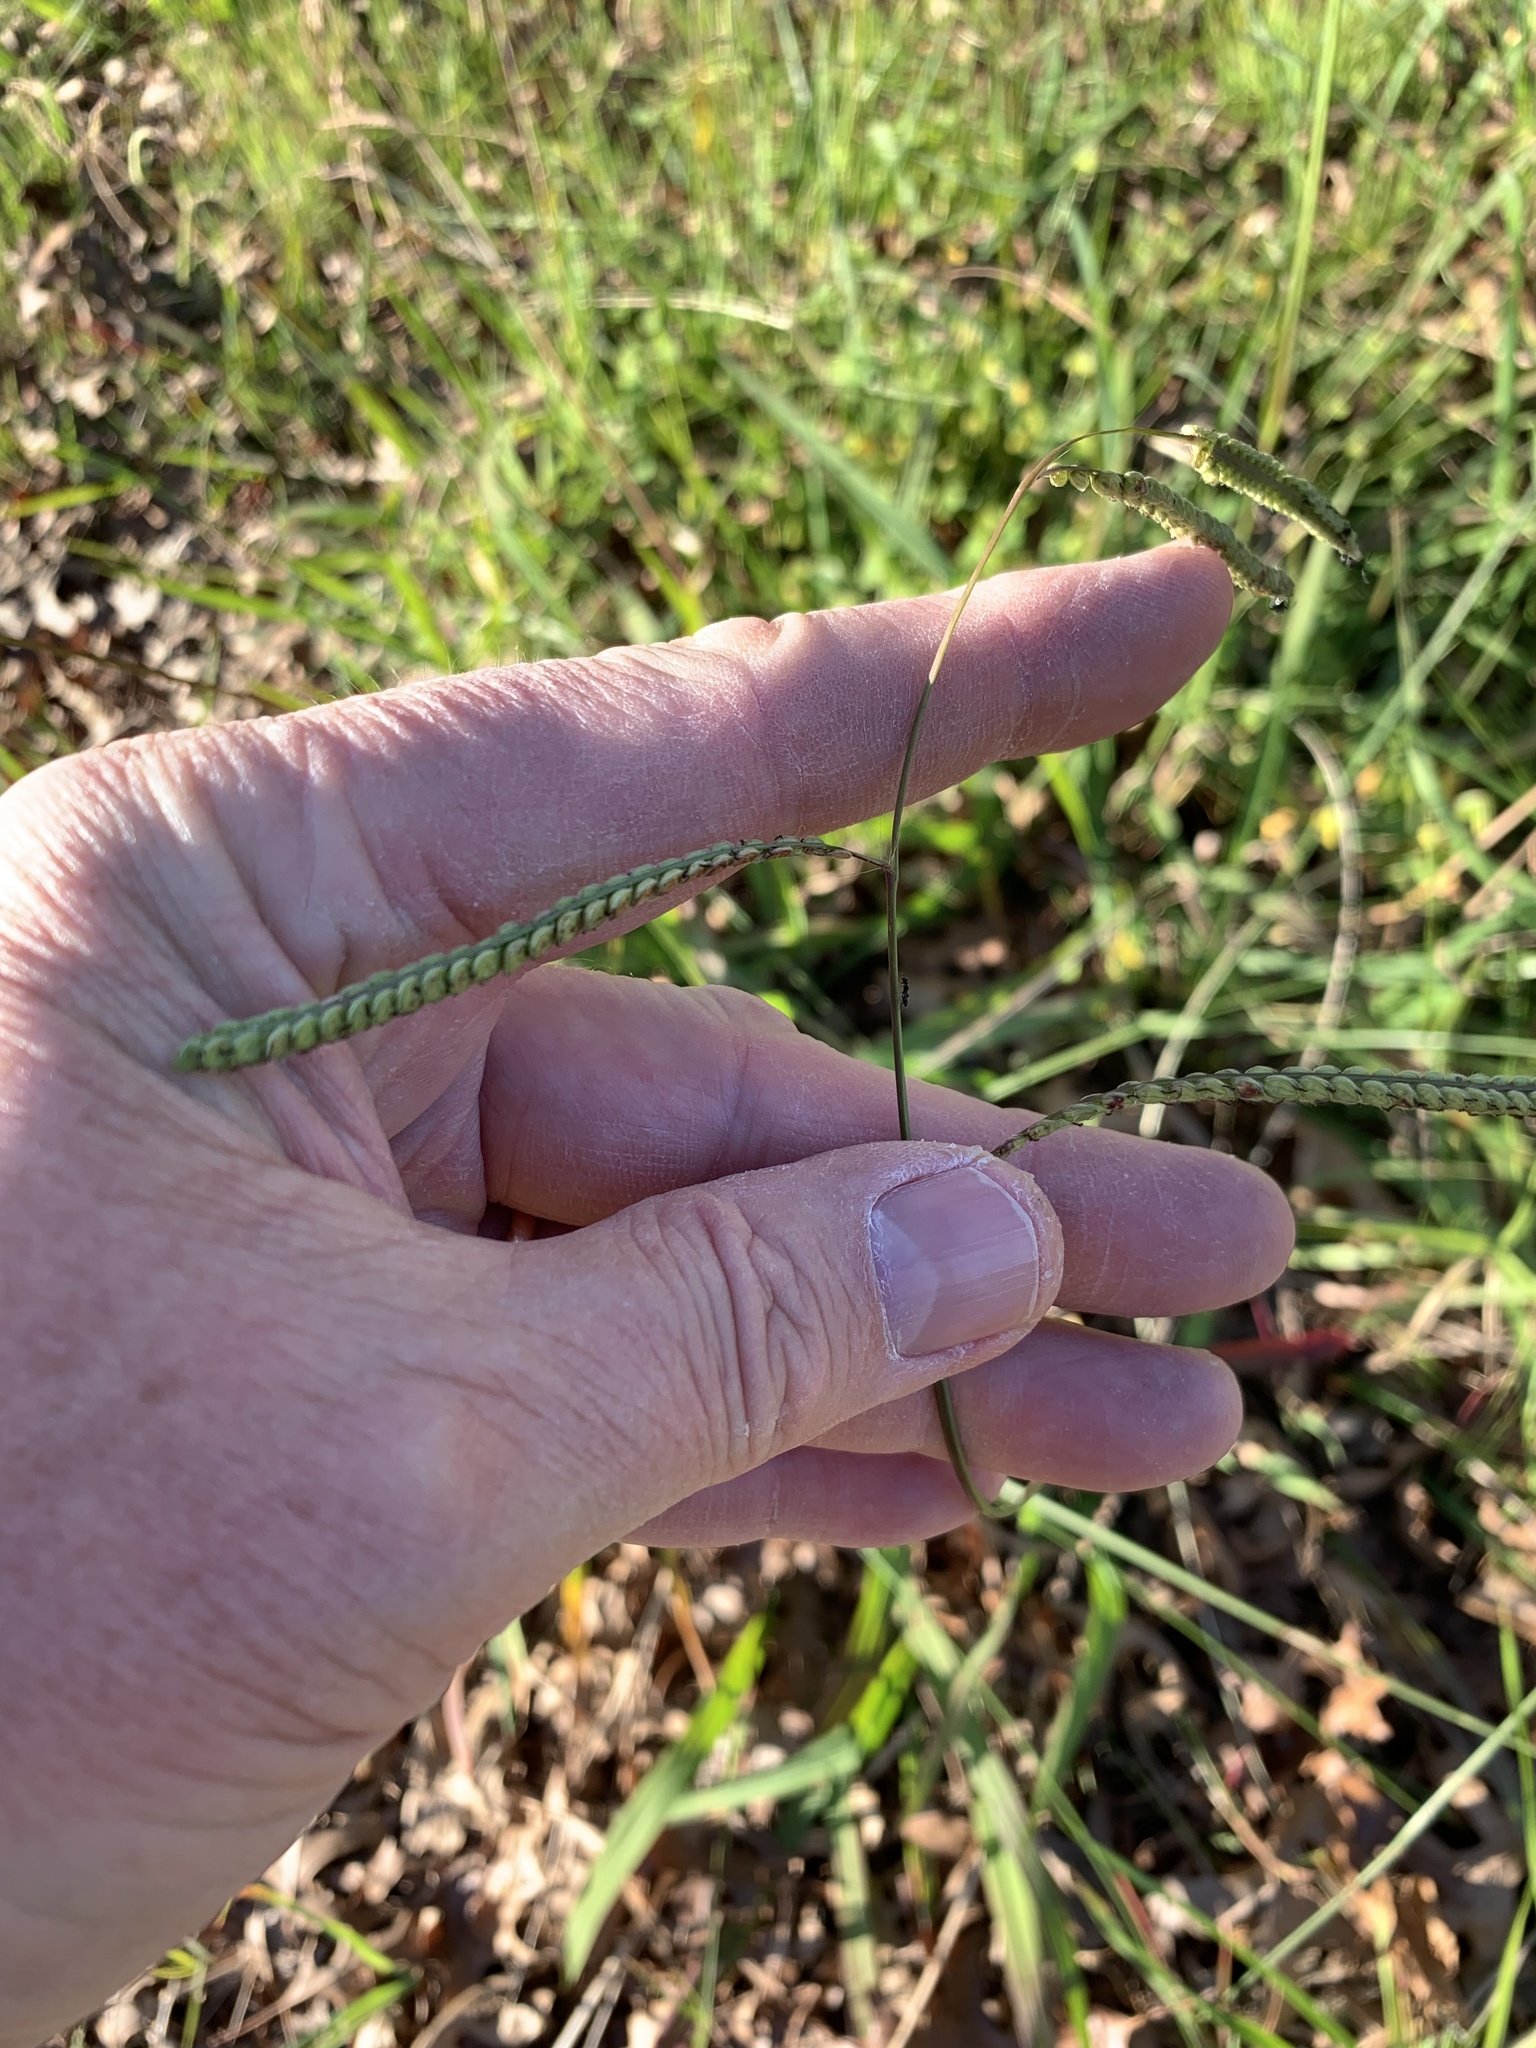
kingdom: Plantae
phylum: Tracheophyta
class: Liliopsida
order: Poales
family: Poaceae
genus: Paspalum
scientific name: Paspalum dilatatum
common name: Dallisgrass
